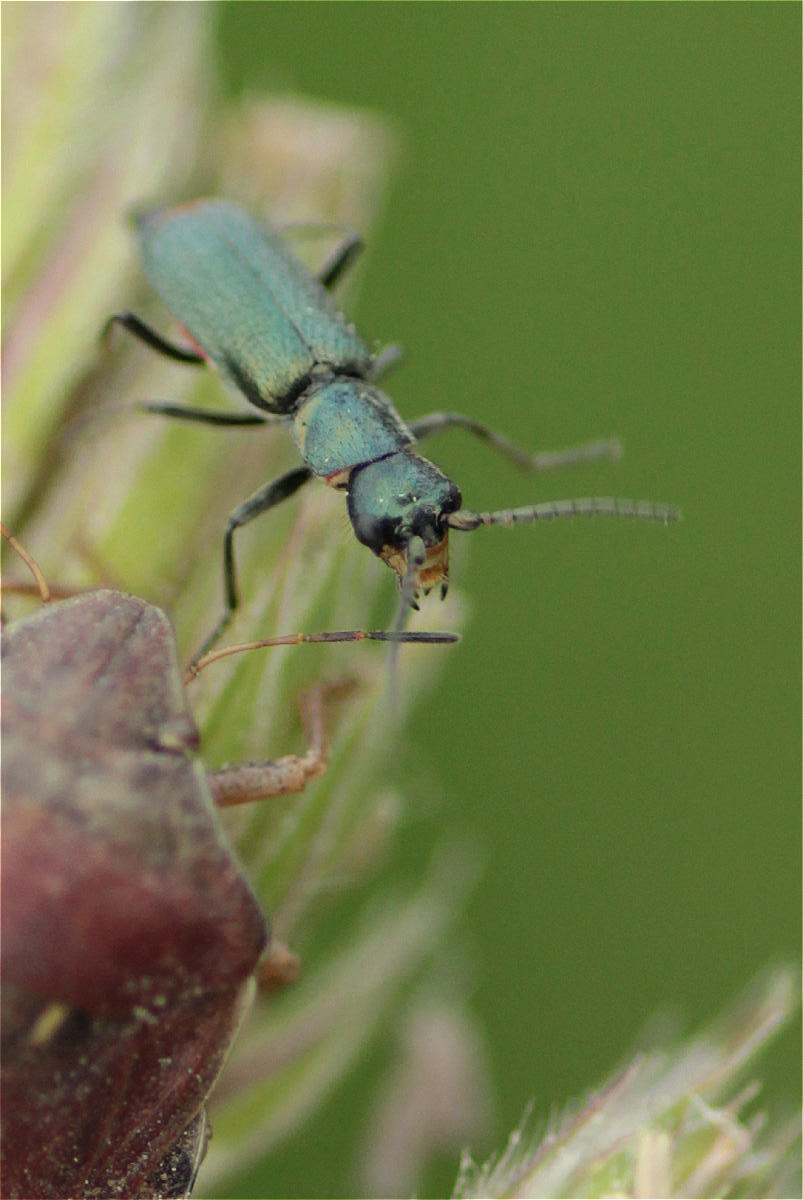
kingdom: Animalia
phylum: Arthropoda
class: Insecta
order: Coleoptera
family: Malachiidae
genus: Cordylepherus
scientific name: Cordylepherus viridis
